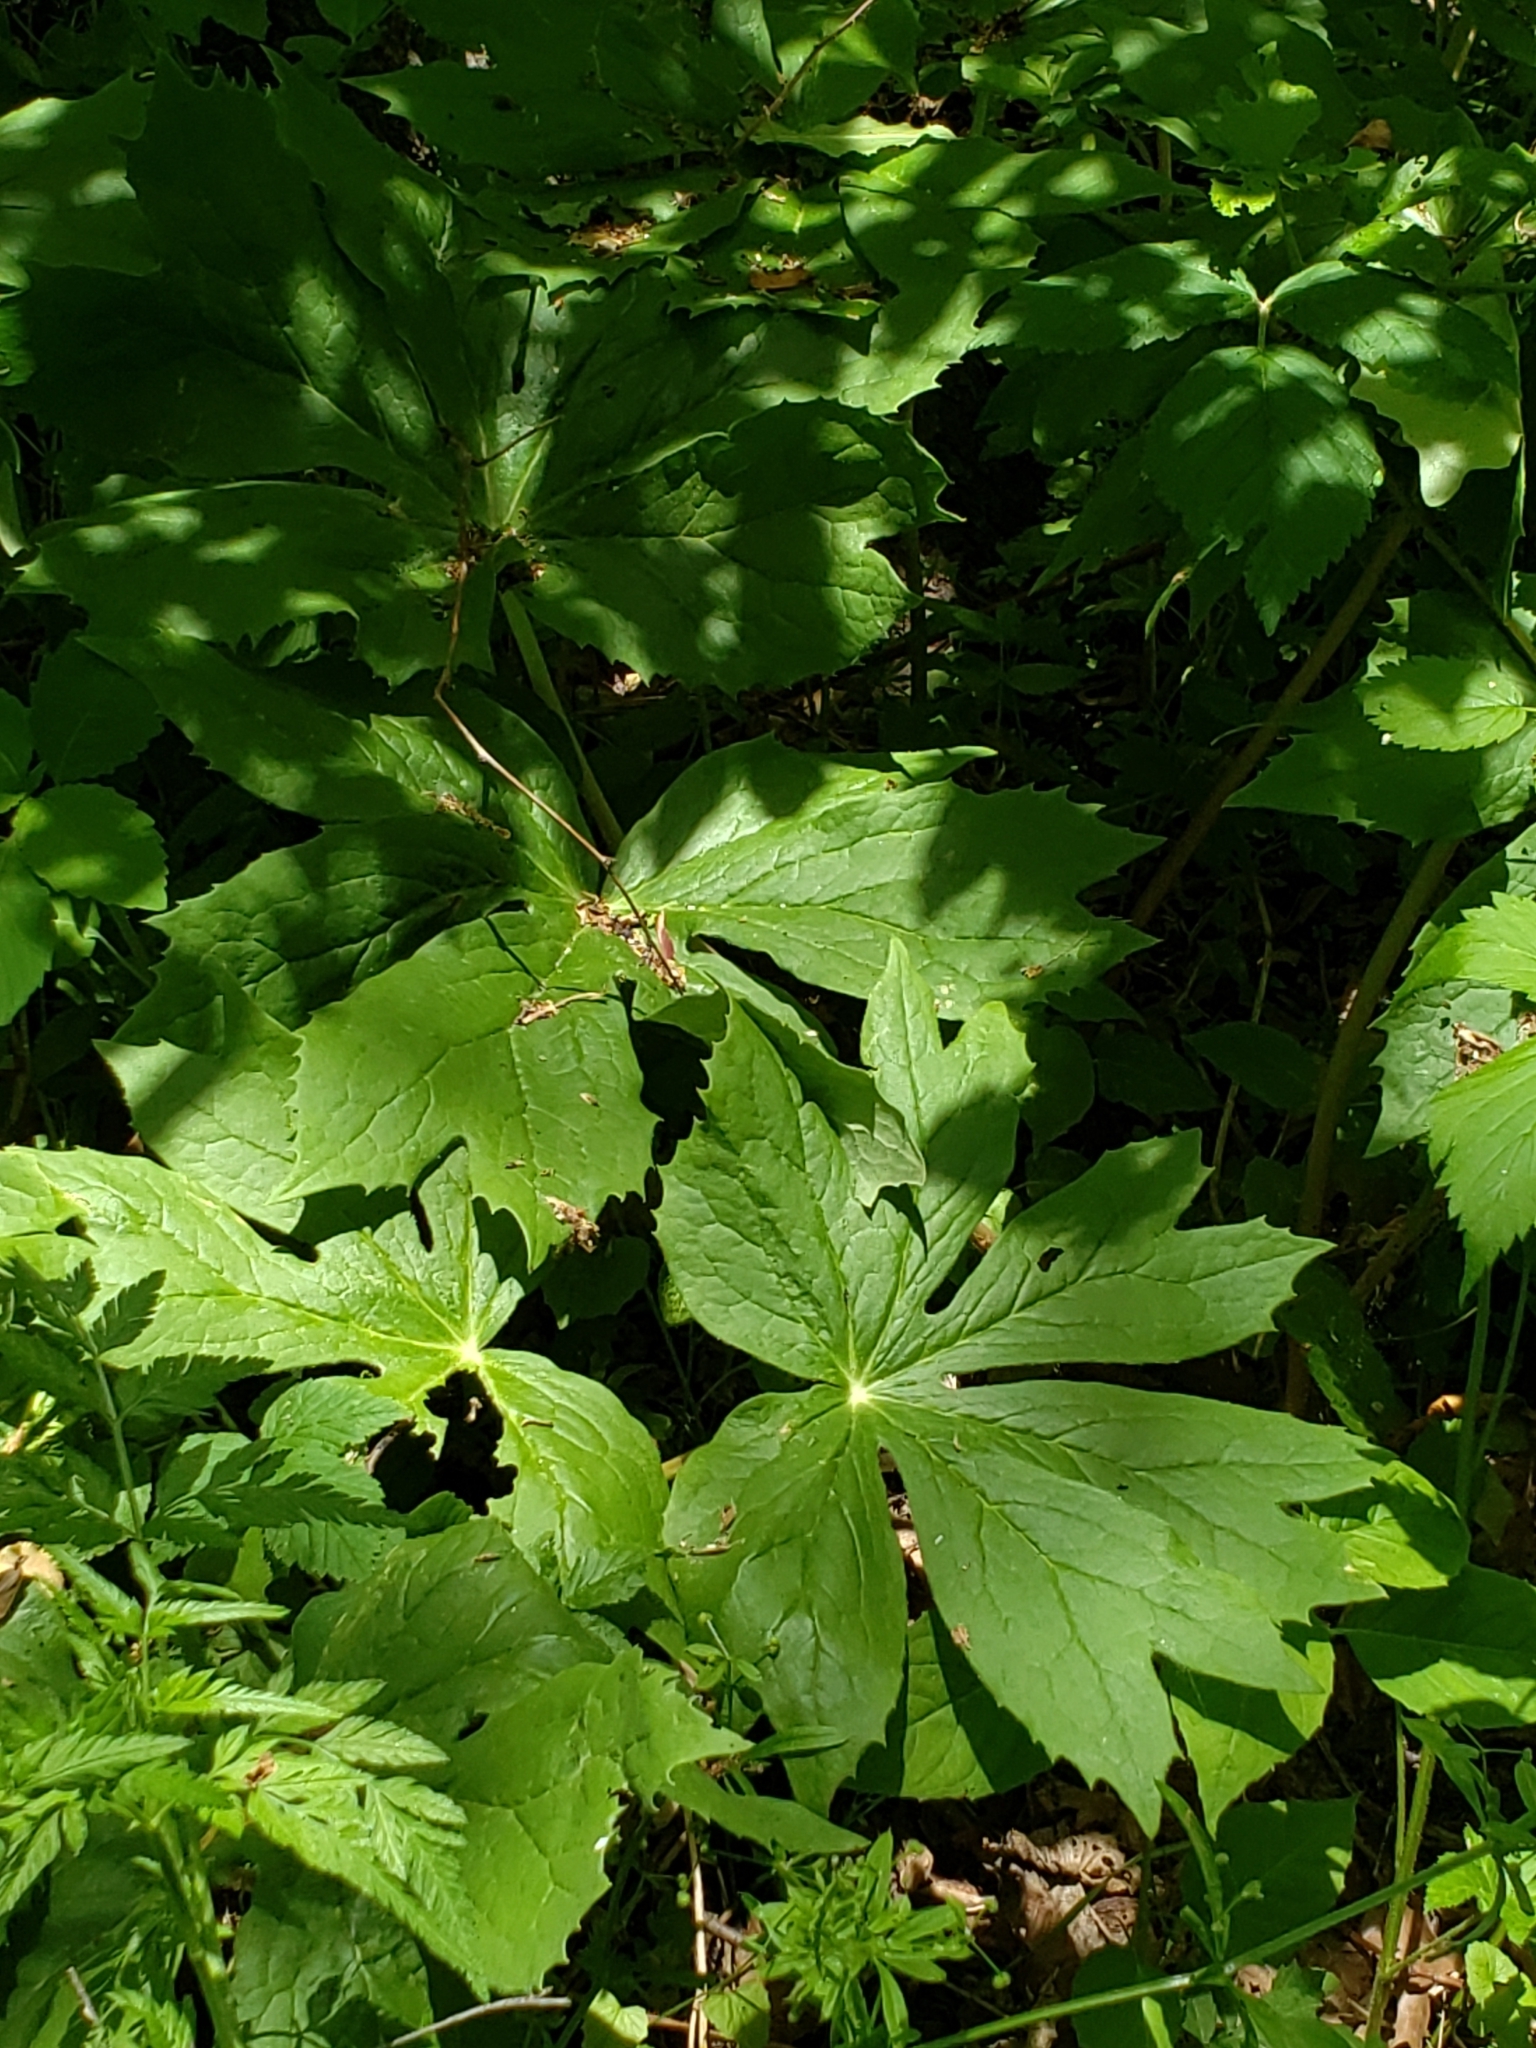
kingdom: Plantae
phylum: Tracheophyta
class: Magnoliopsida
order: Ranunculales
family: Berberidaceae
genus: Podophyllum
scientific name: Podophyllum peltatum
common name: Wild mandrake
